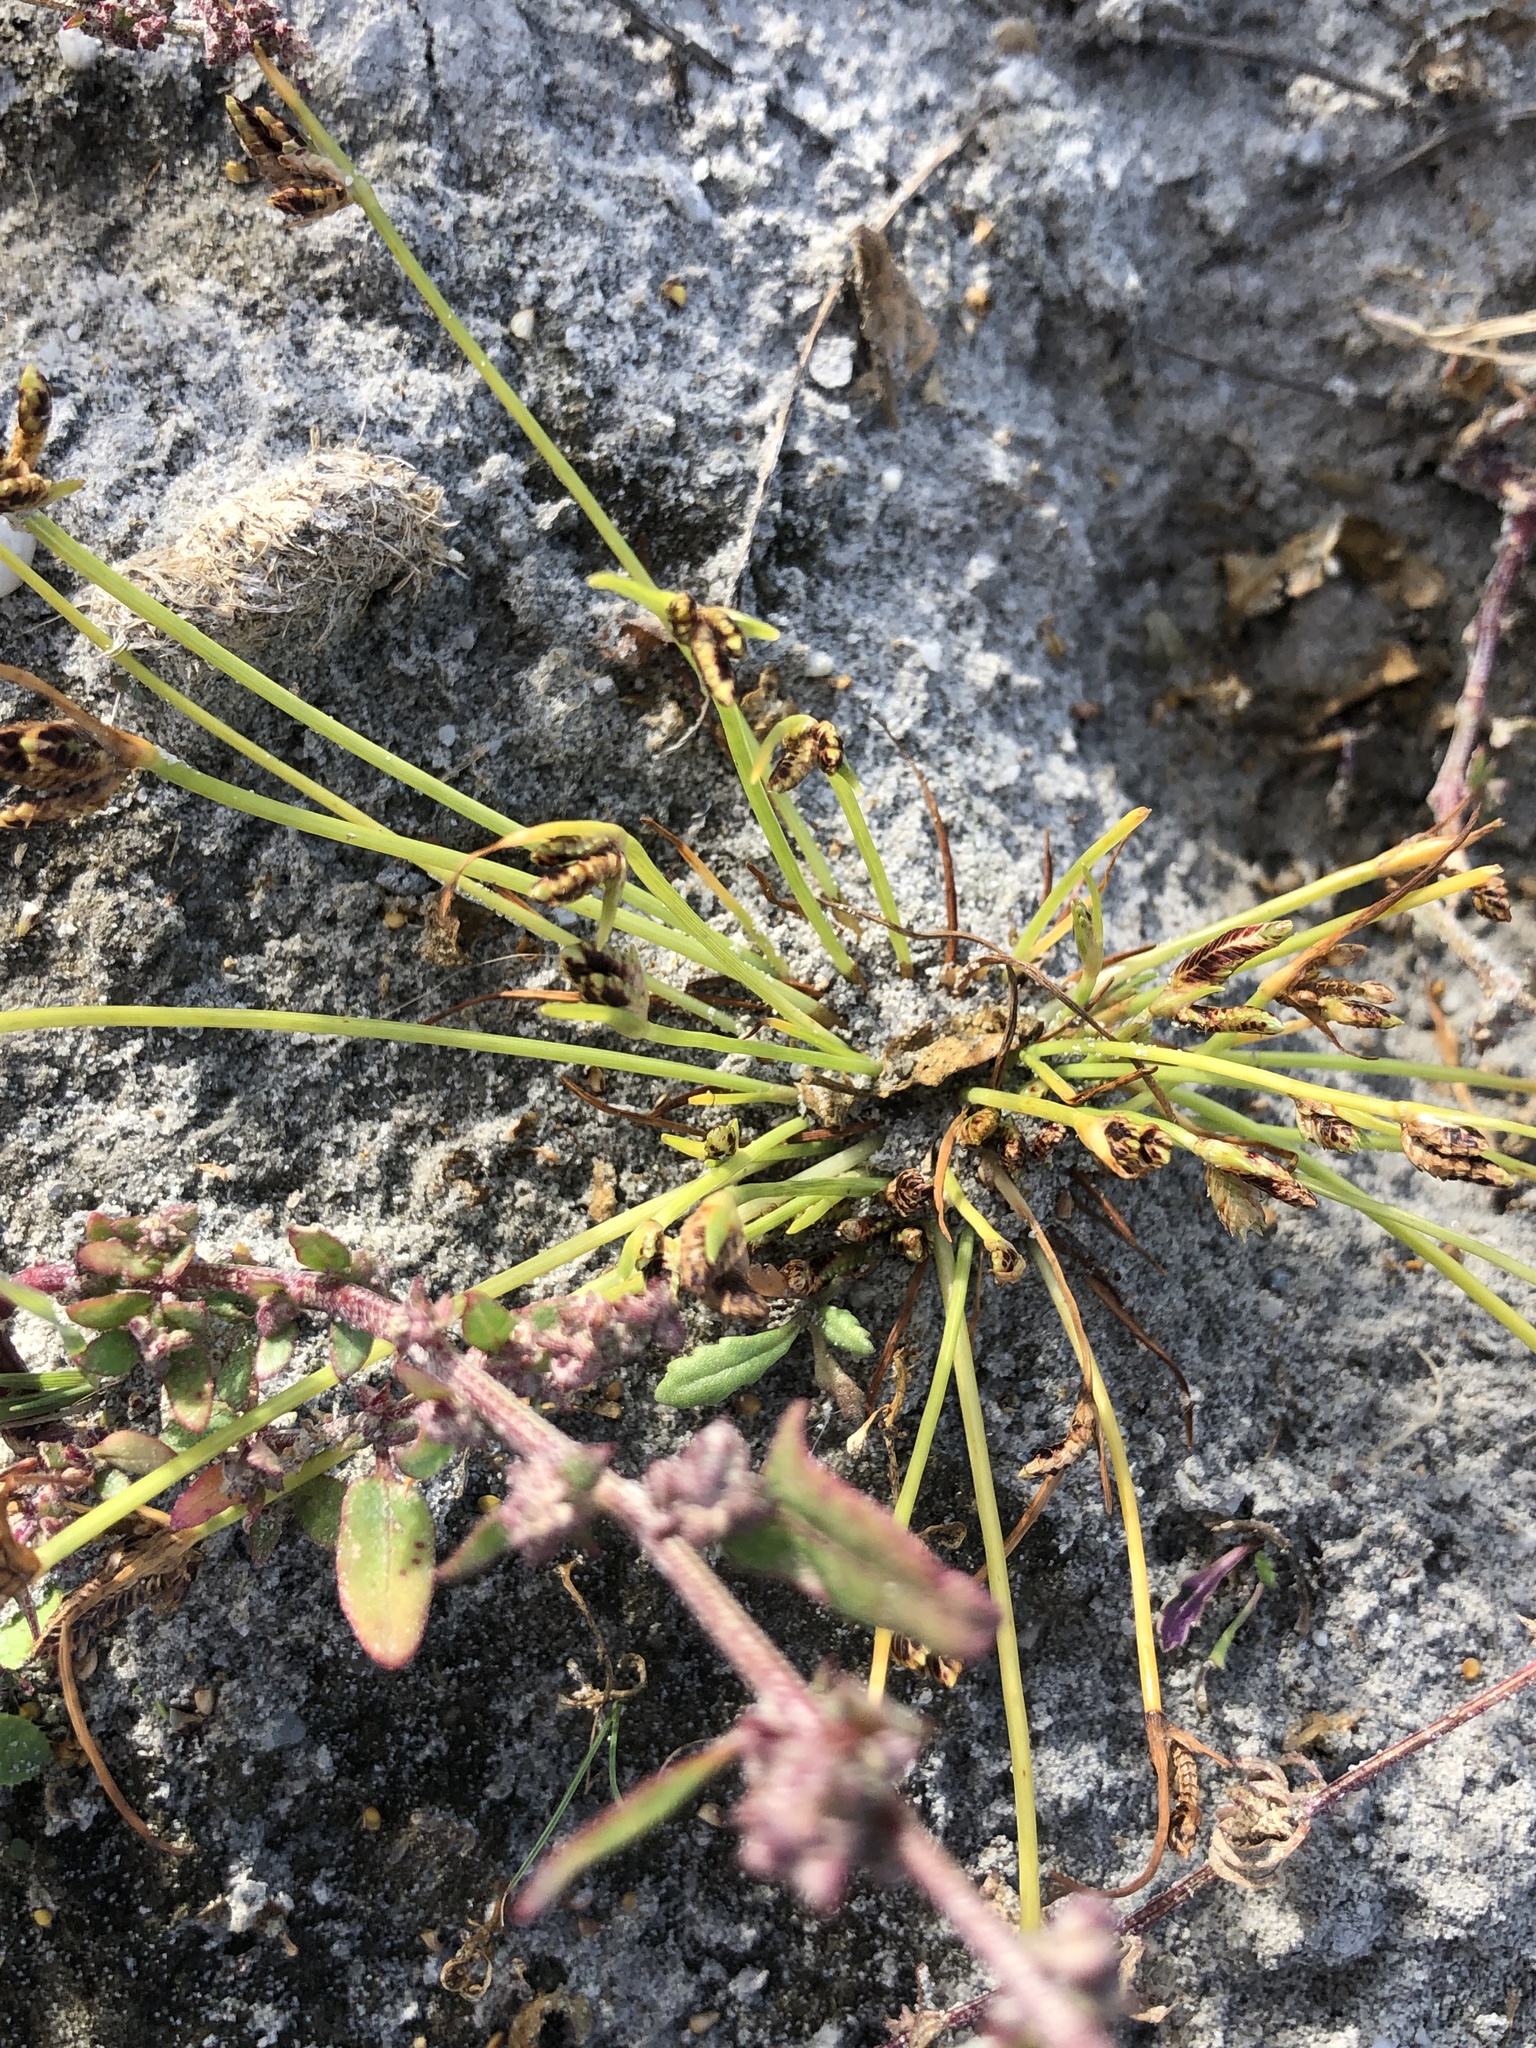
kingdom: Plantae
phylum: Tracheophyta
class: Liliopsida
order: Poales
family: Cyperaceae
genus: Cyperus
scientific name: Cyperus pannonicus
